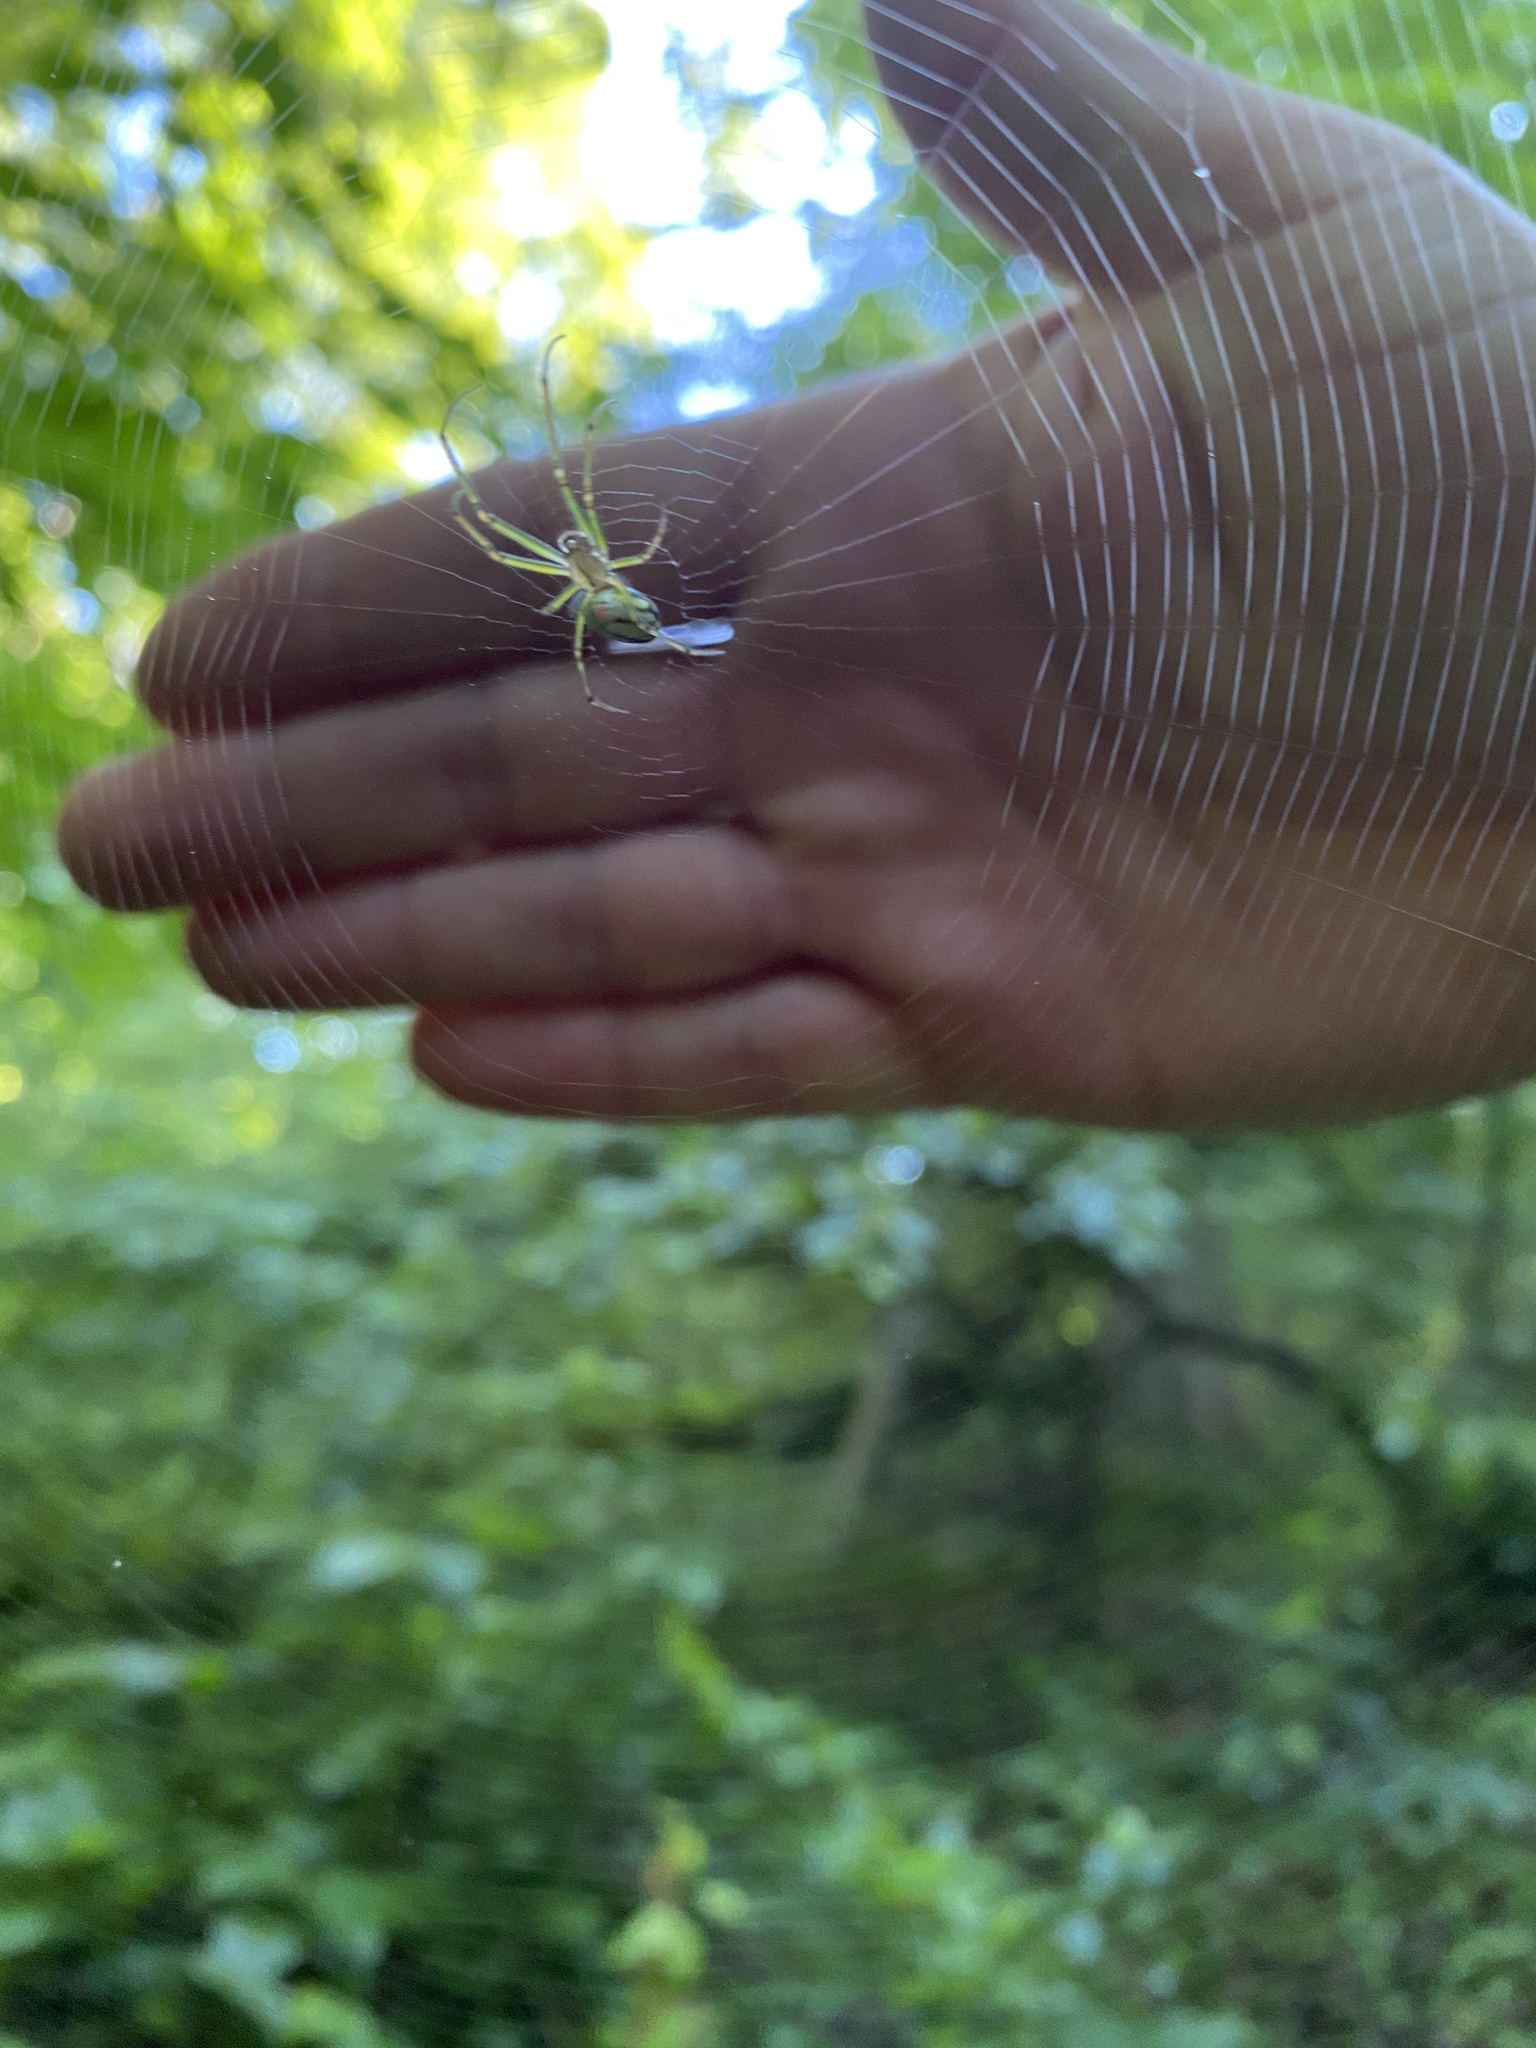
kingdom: Animalia
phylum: Arthropoda
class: Arachnida
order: Araneae
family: Tetragnathidae
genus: Leucauge
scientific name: Leucauge venusta
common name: Longjawed orb weavers
